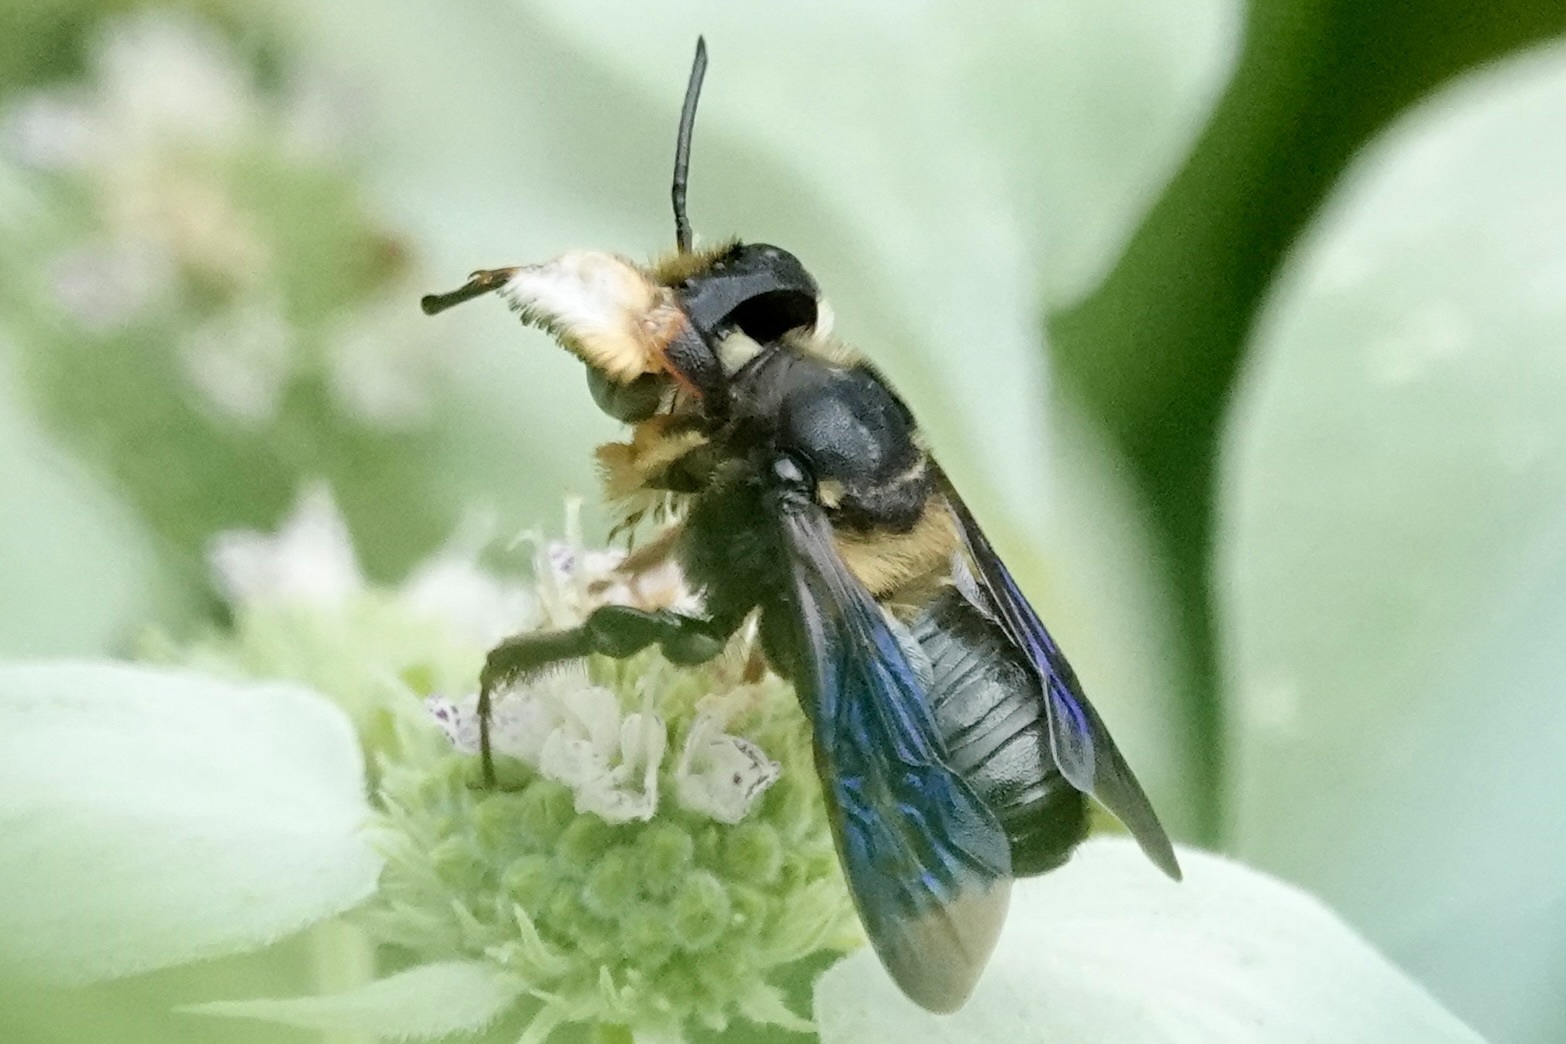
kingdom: Animalia
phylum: Arthropoda
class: Insecta
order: Hymenoptera
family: Megachilidae
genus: Megachile
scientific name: Megachile xylocopoides
